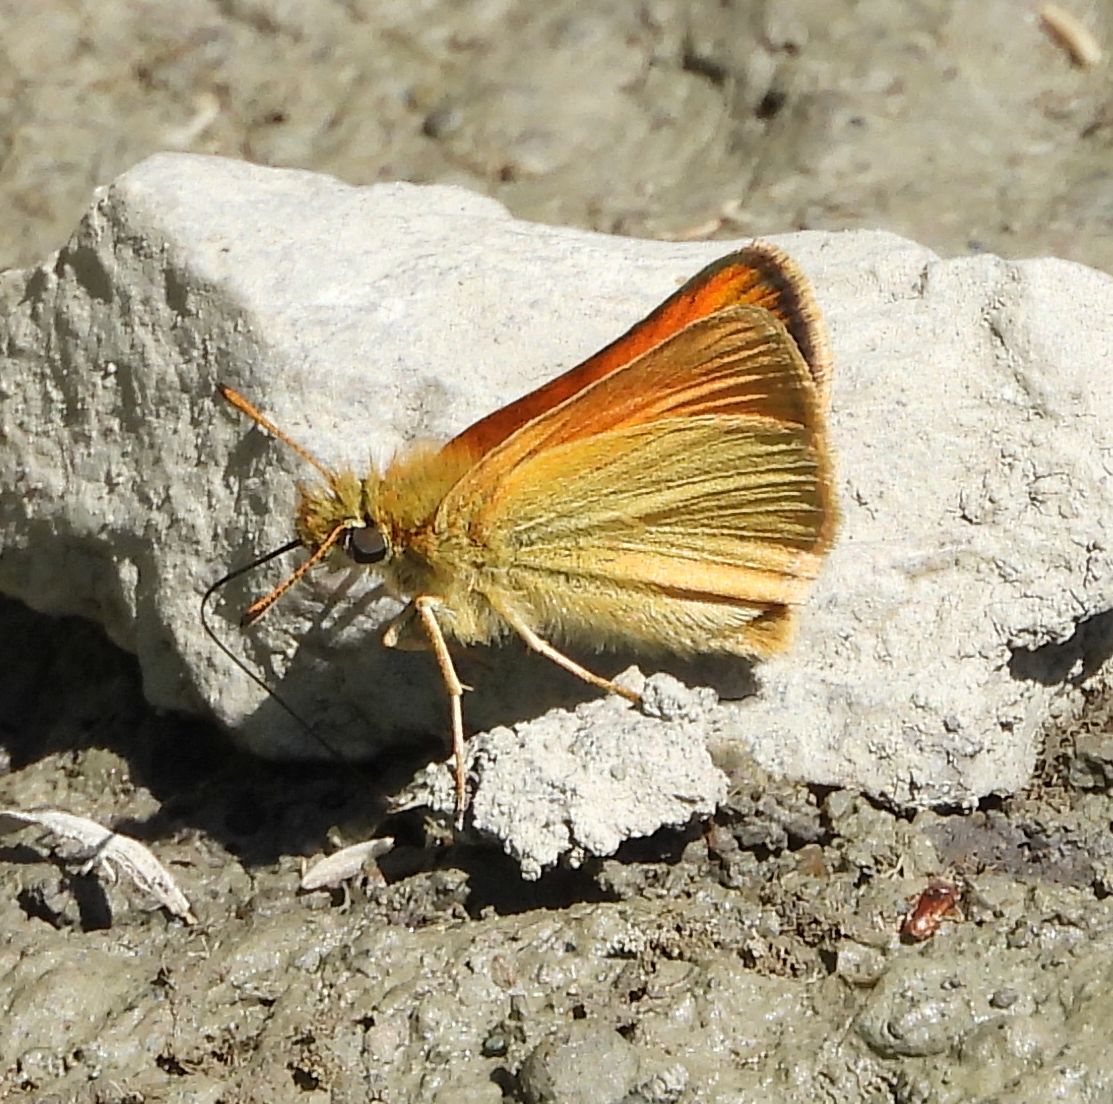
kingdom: Animalia
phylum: Arthropoda
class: Insecta
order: Lepidoptera
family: Hesperiidae
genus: Thymelicus
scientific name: Thymelicus lineola
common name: Essex skipper
